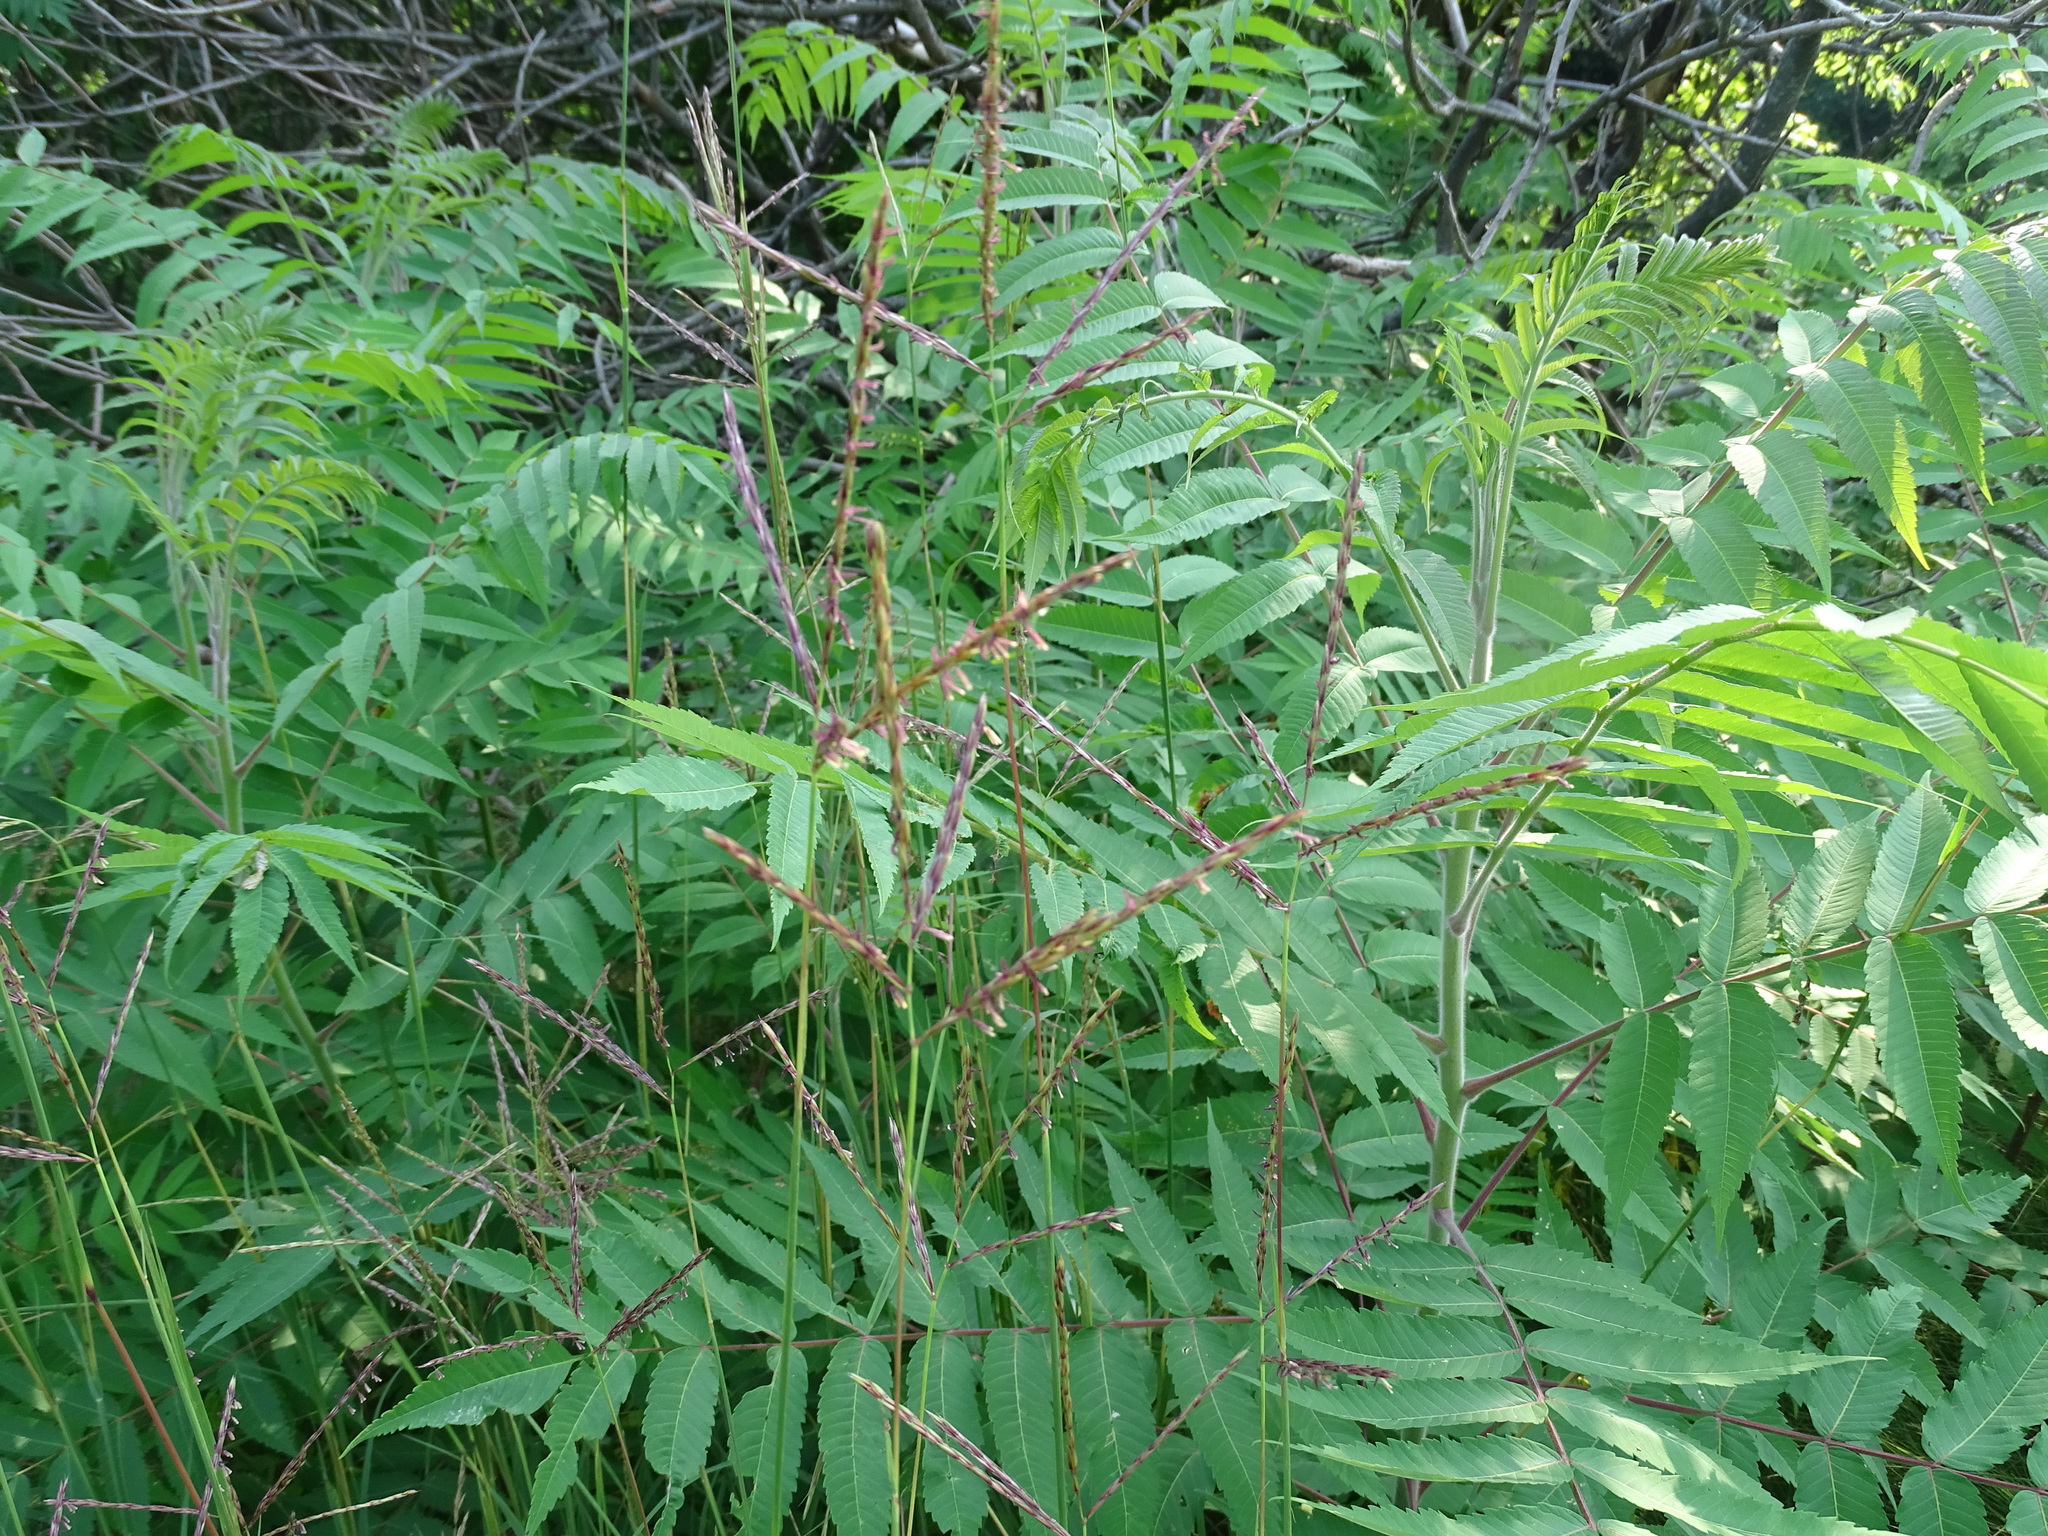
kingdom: Plantae
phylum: Tracheophyta
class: Liliopsida
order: Poales
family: Poaceae
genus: Andropogon
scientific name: Andropogon gerardi
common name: Big bluestem
